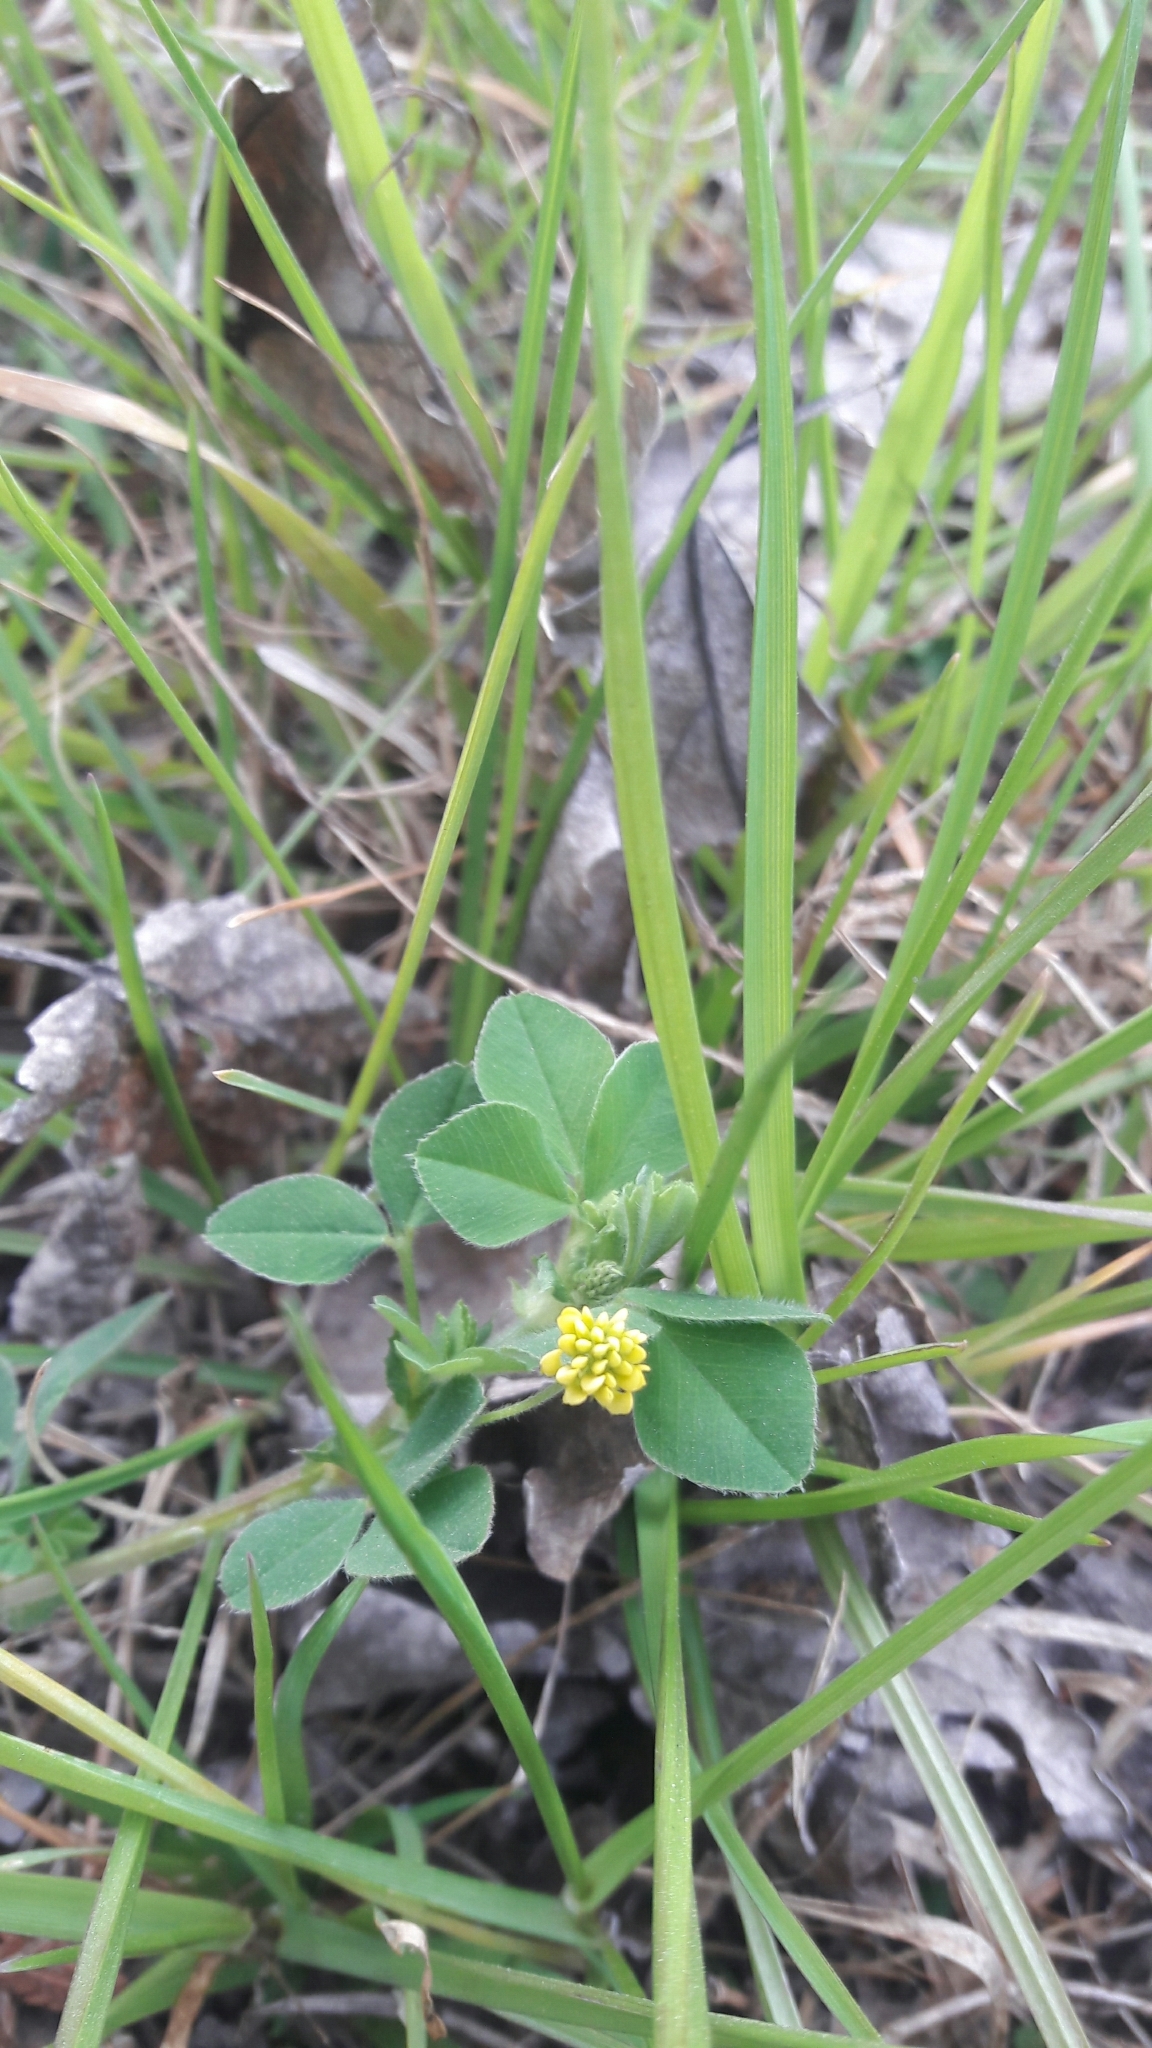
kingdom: Plantae
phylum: Tracheophyta
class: Magnoliopsida
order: Fabales
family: Fabaceae
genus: Medicago
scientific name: Medicago lupulina
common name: Black medick
